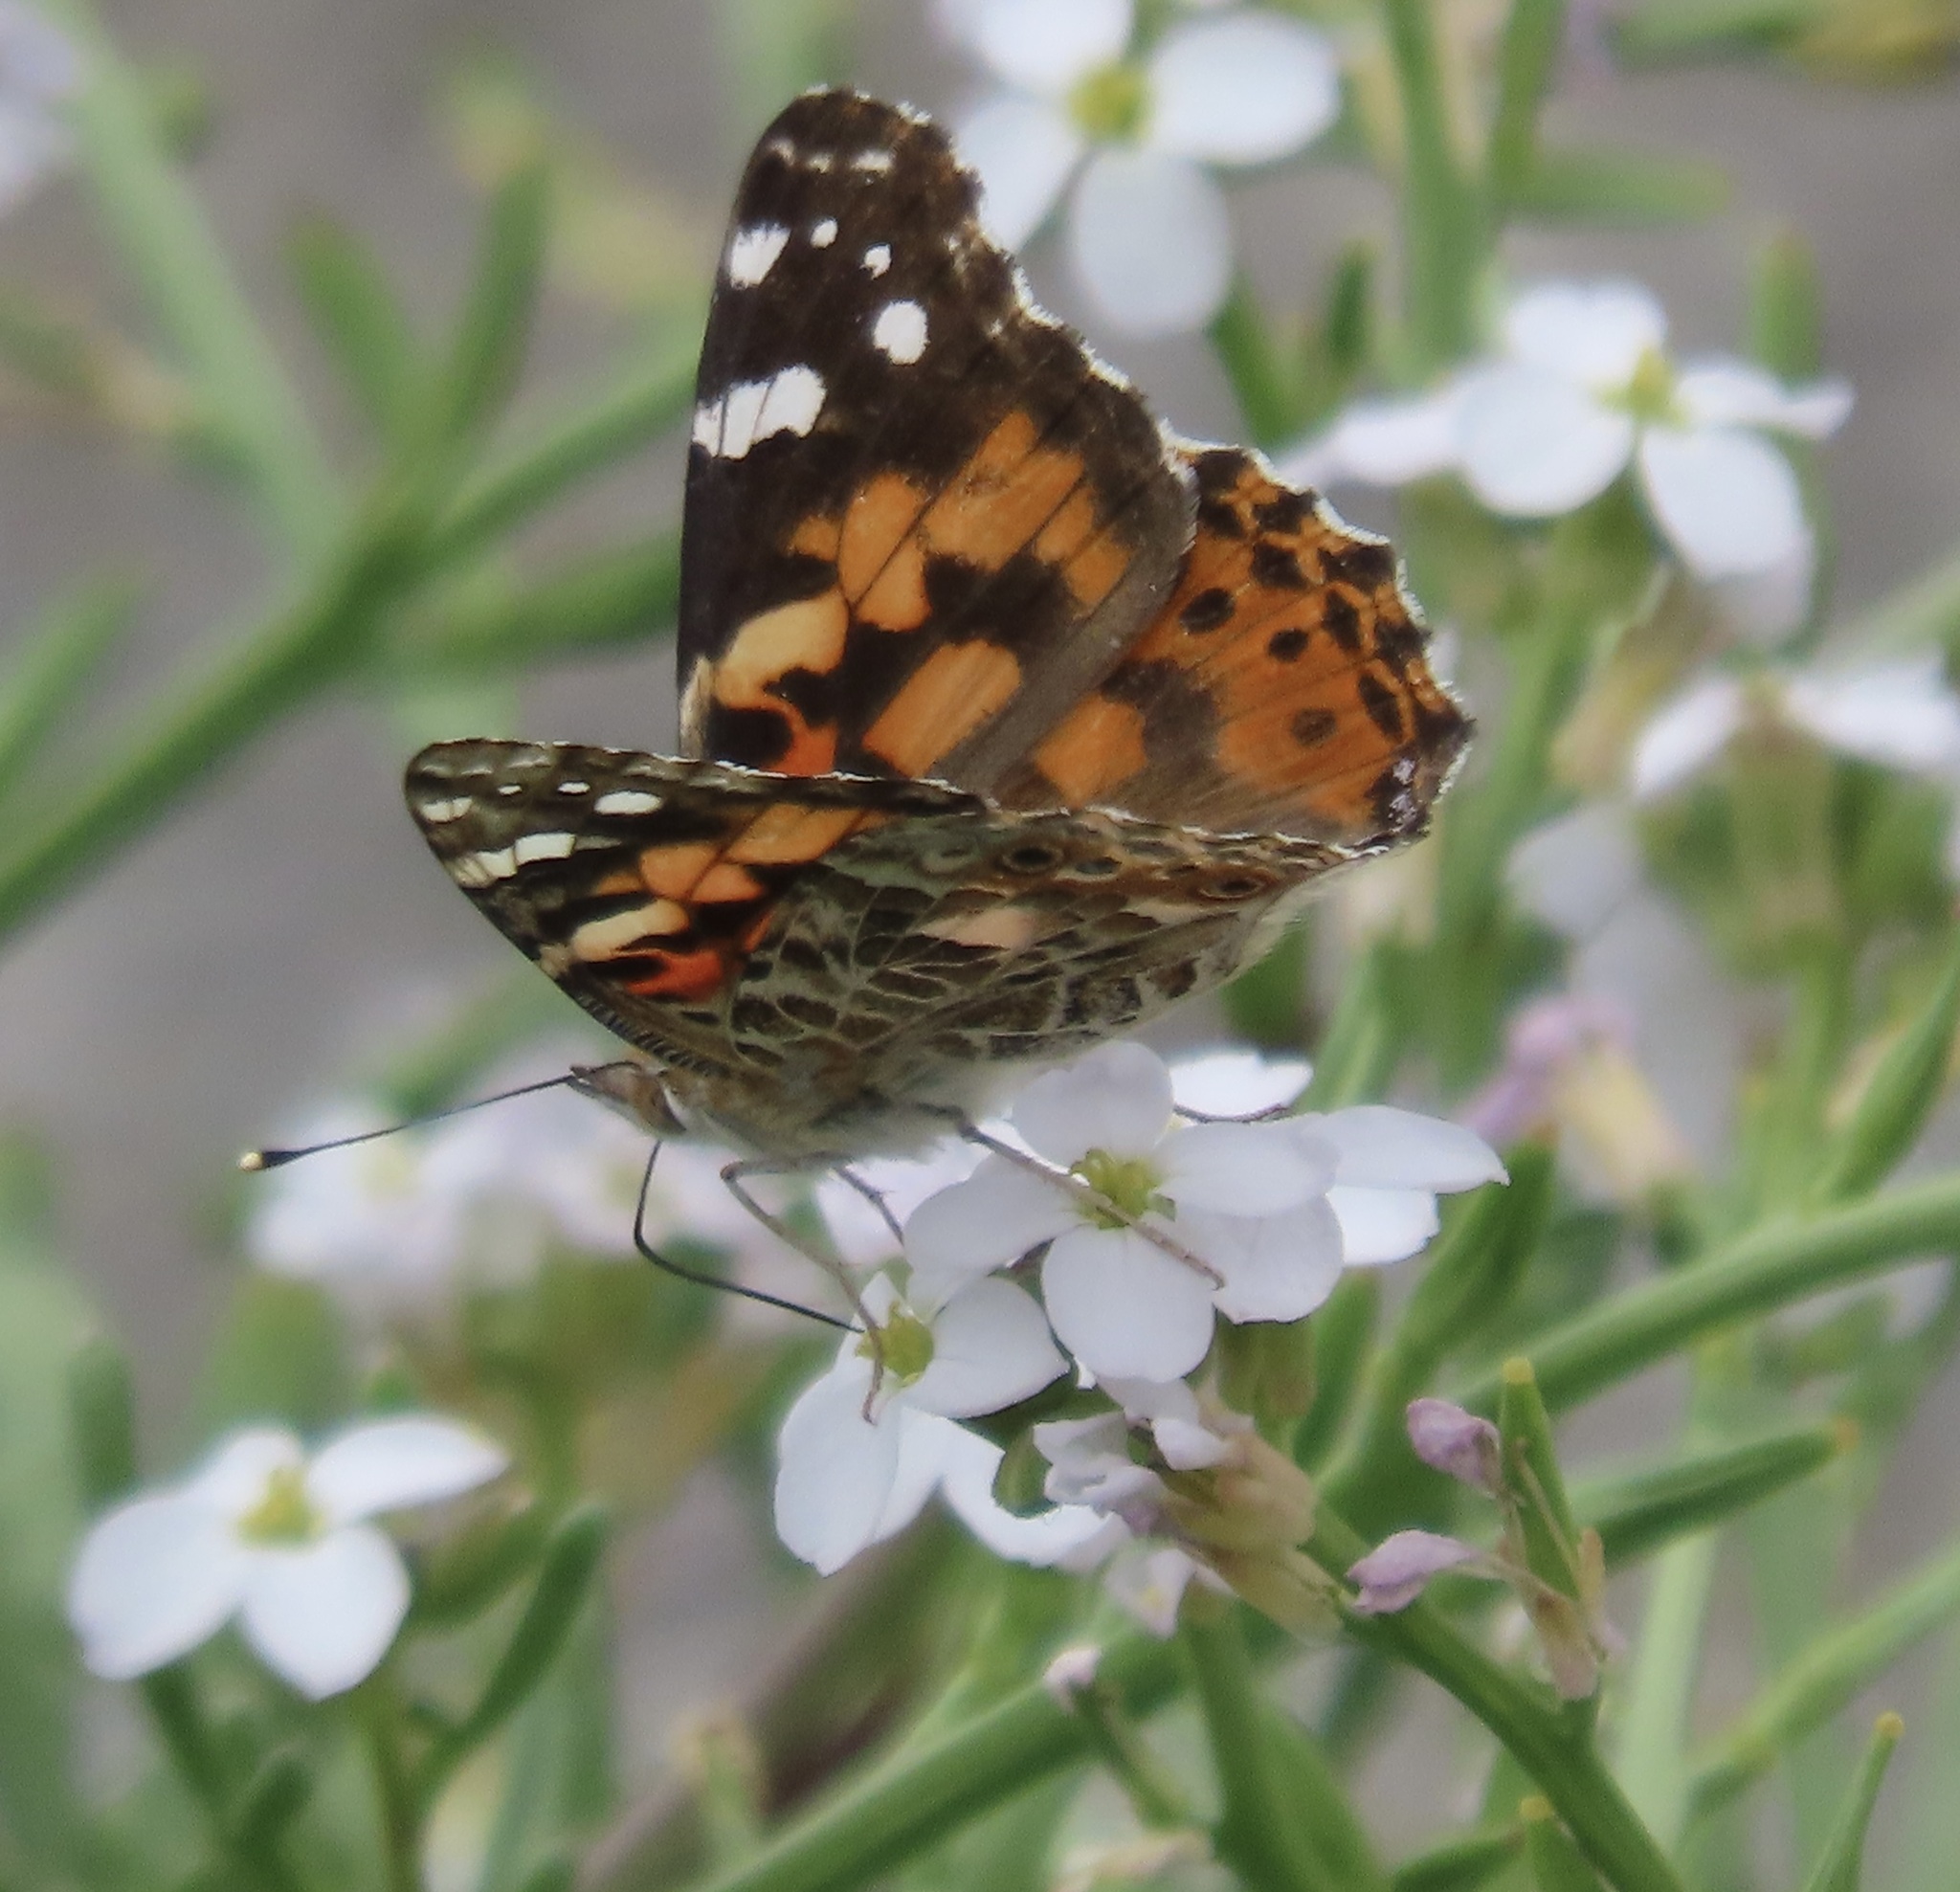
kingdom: Animalia
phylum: Arthropoda
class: Insecta
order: Lepidoptera
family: Nymphalidae
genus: Vanessa
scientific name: Vanessa cardui
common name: Painted lady
